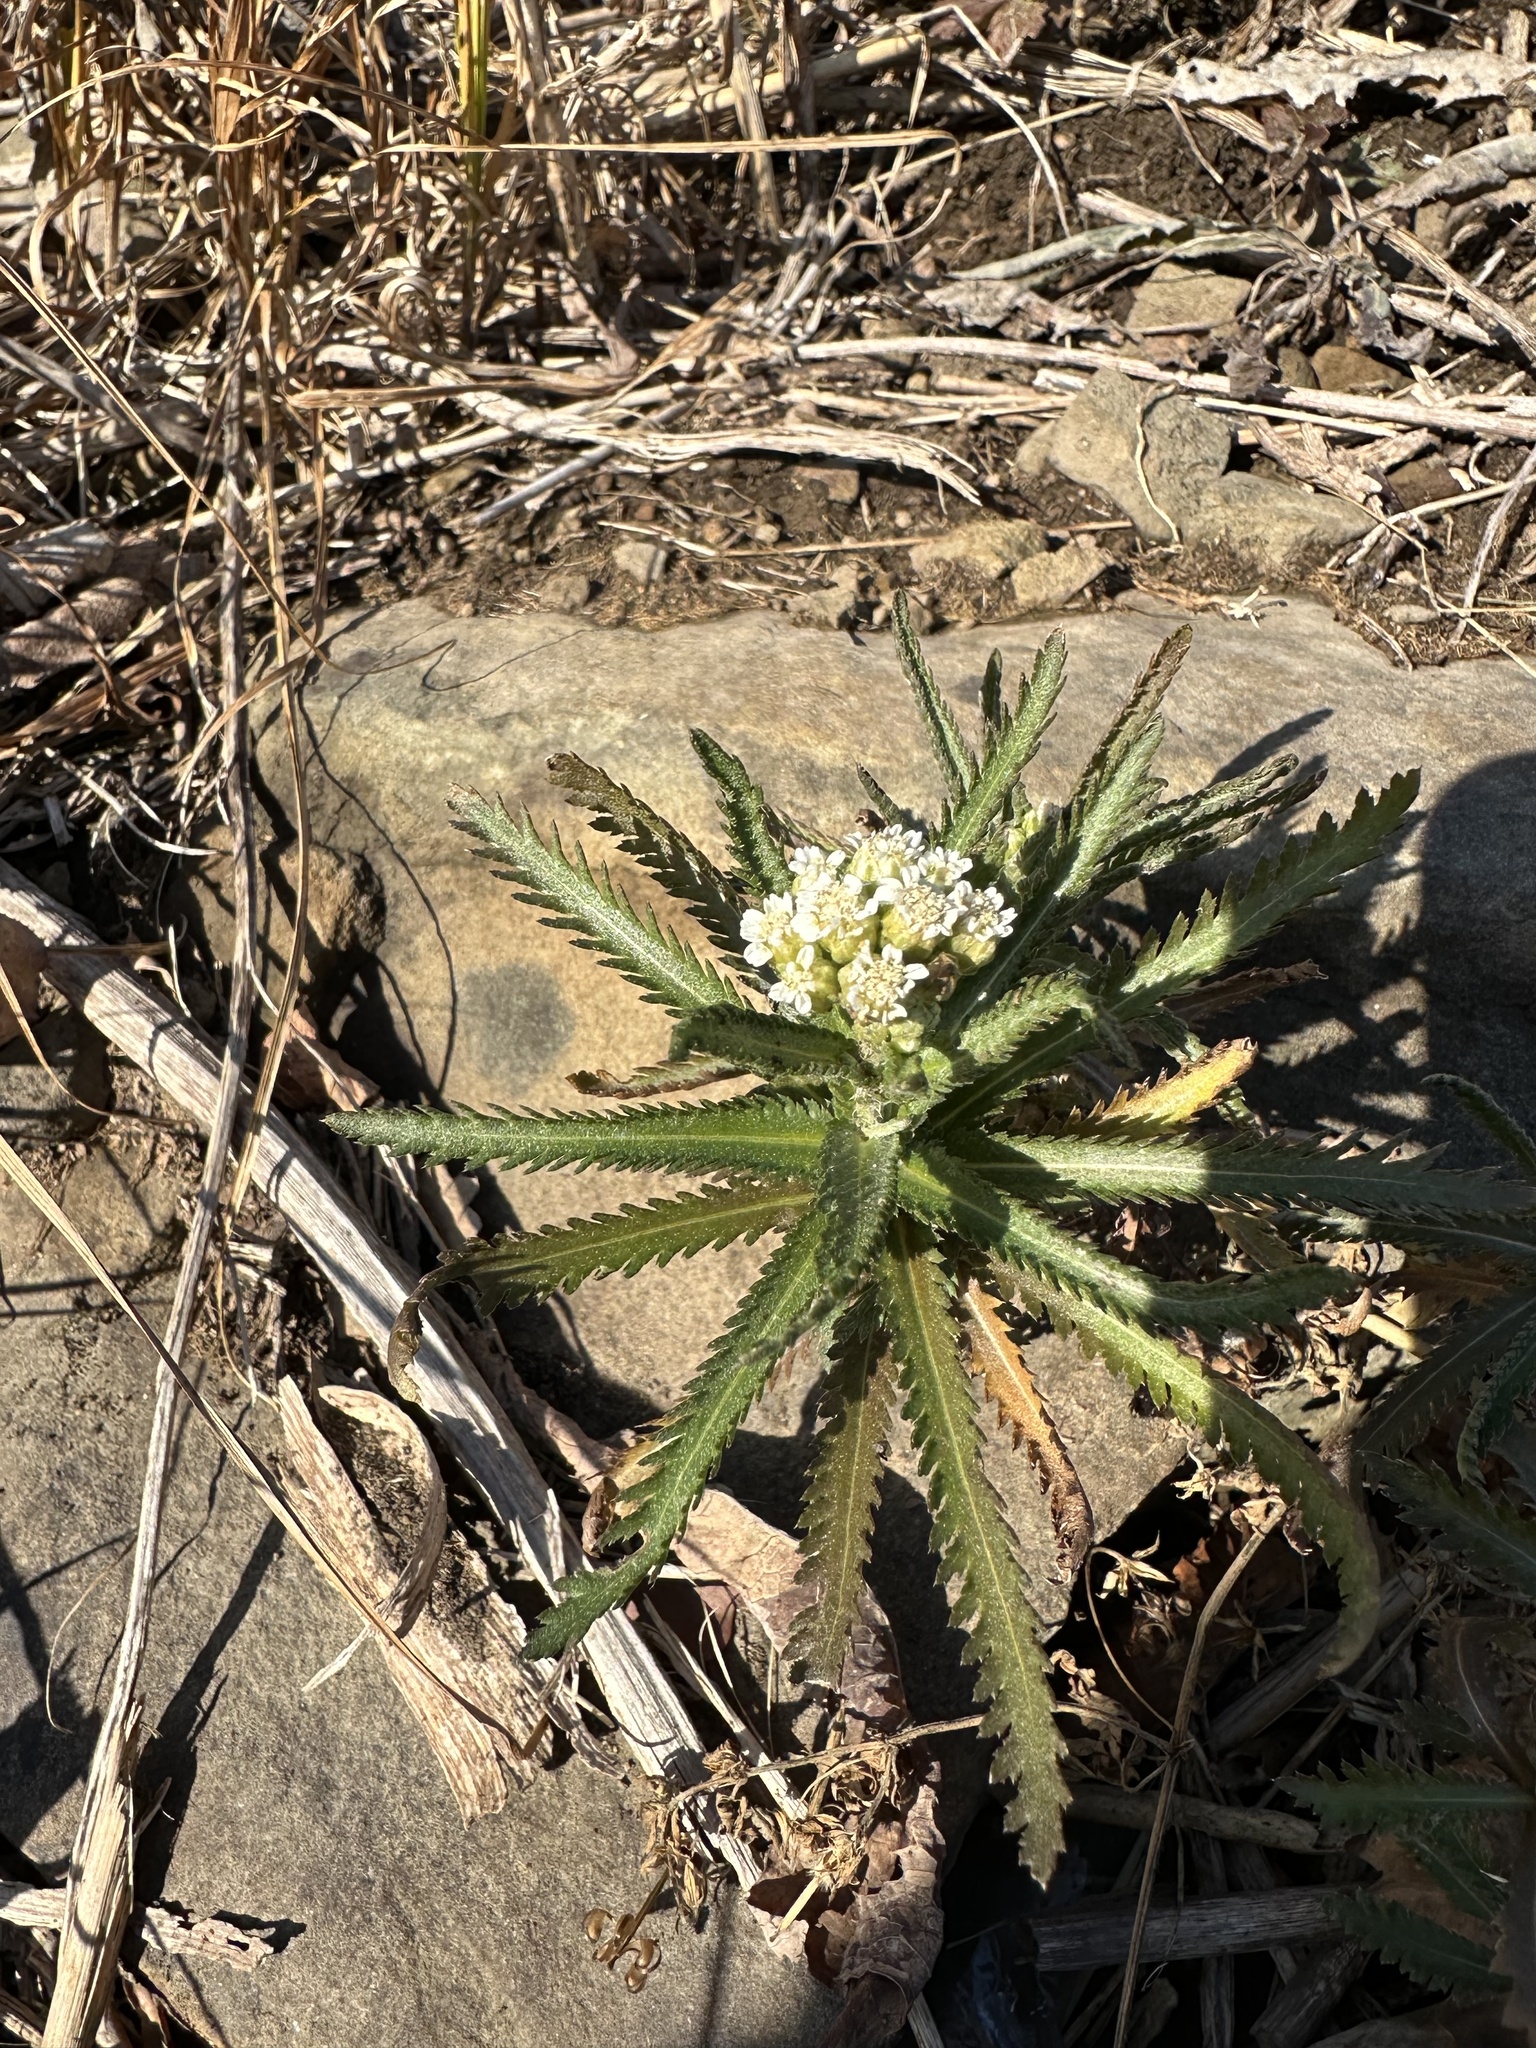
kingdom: Plantae
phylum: Tracheophyta
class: Magnoliopsida
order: Asterales
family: Asteraceae
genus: Achillea
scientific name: Achillea ptarmicoides
